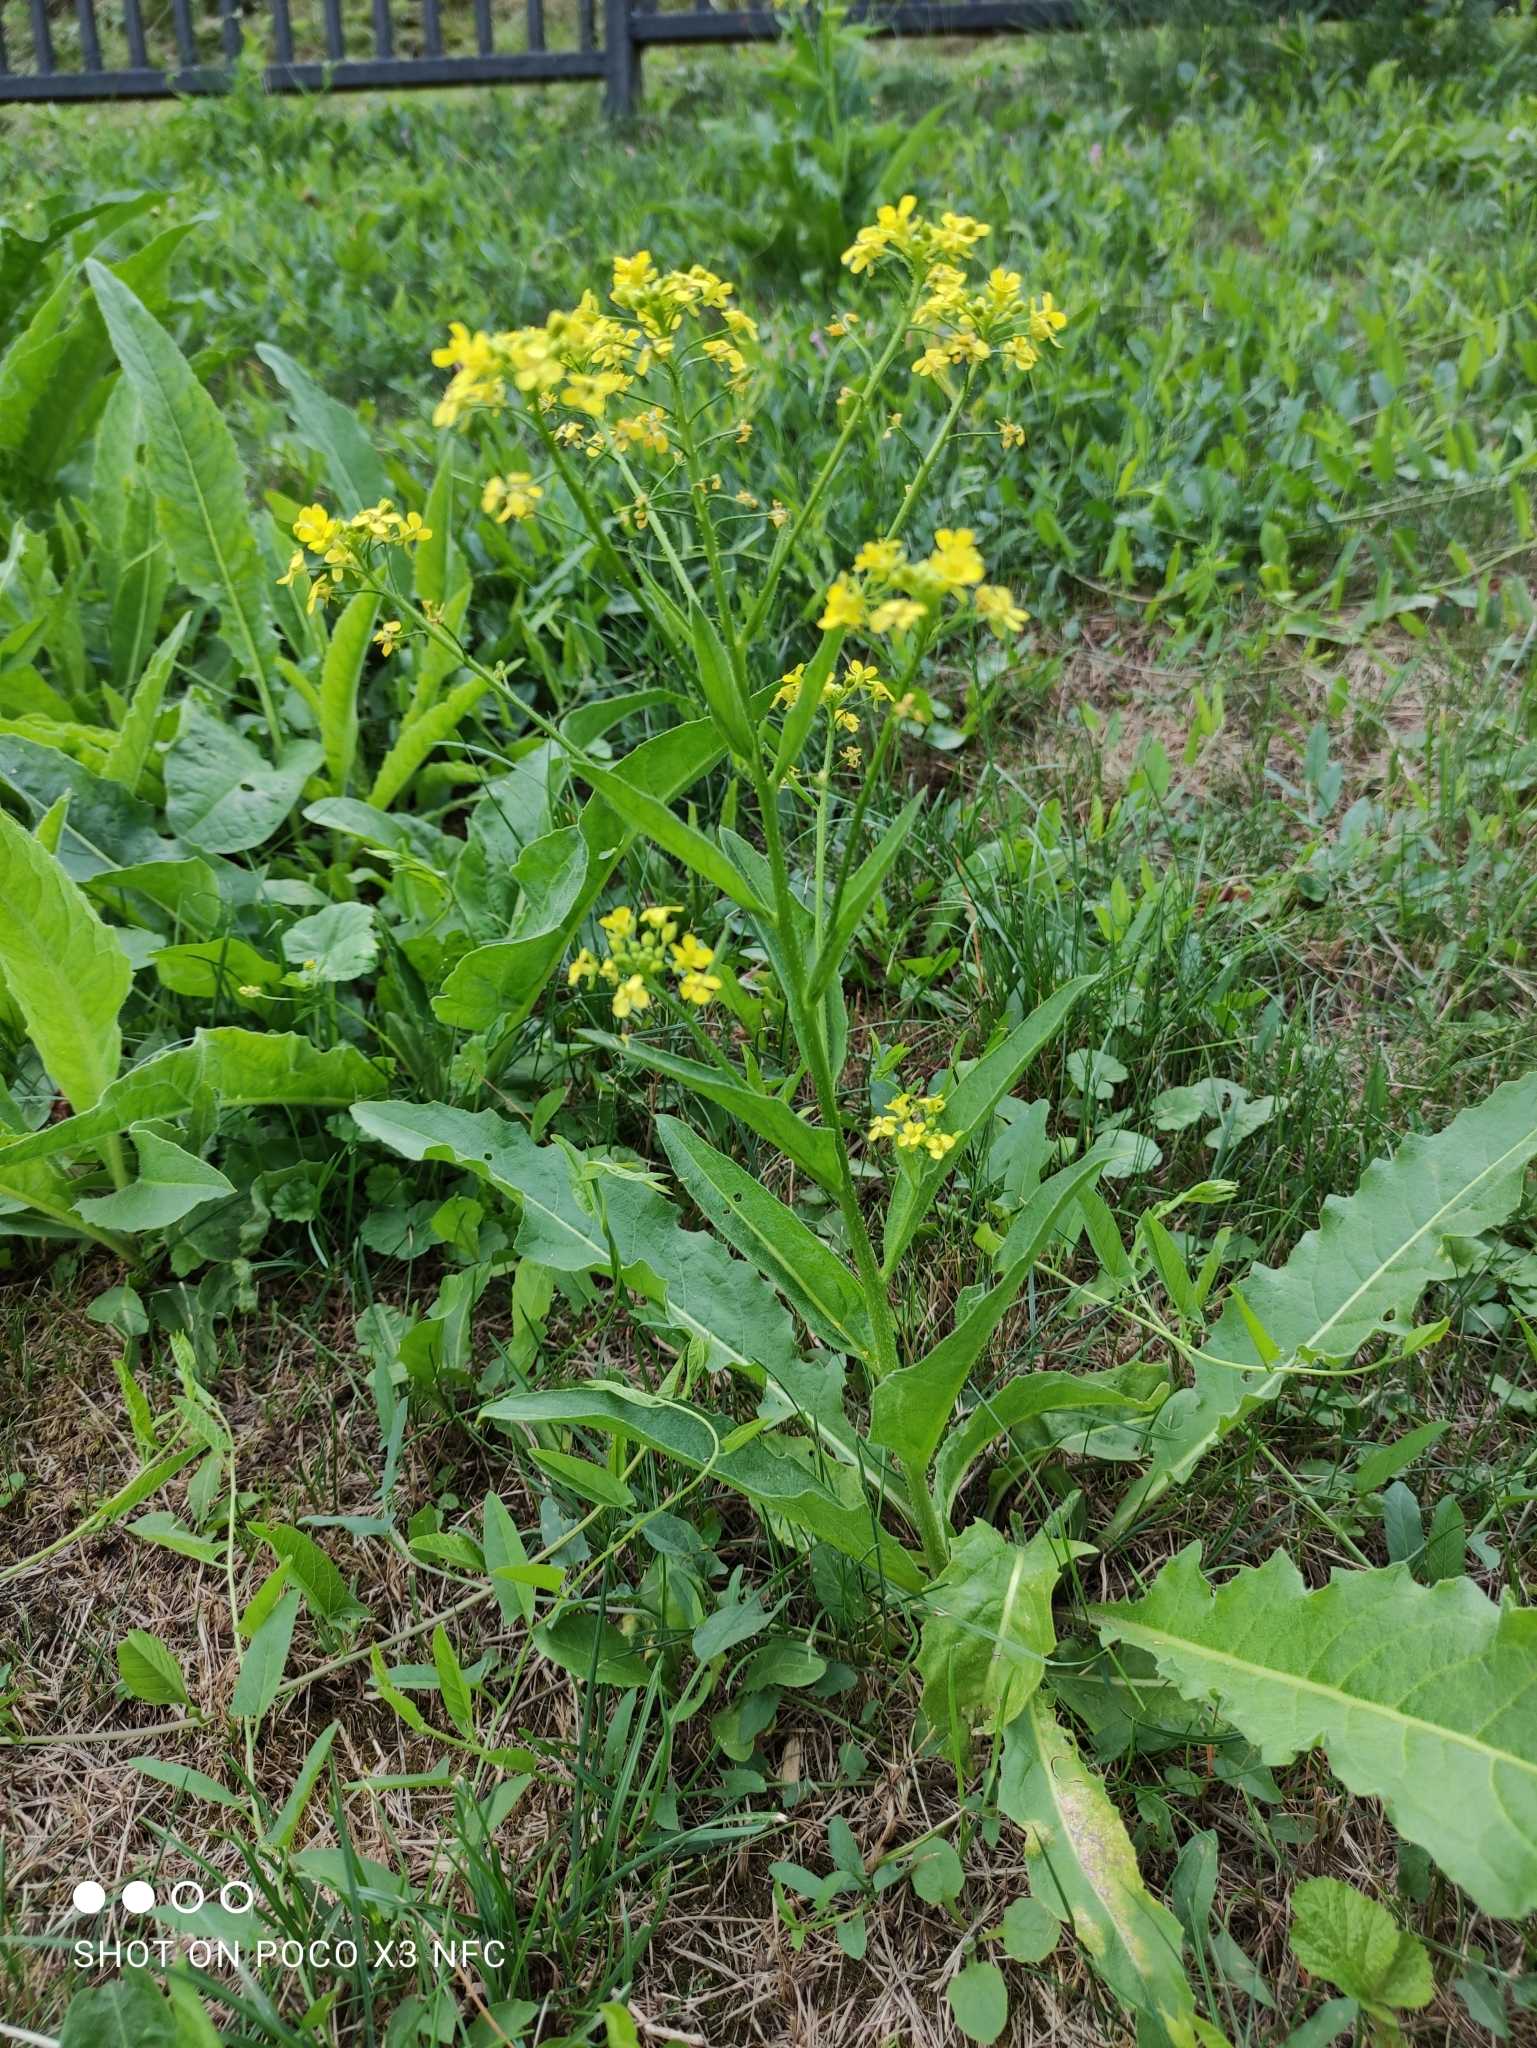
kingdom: Plantae
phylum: Tracheophyta
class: Magnoliopsida
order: Brassicales
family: Brassicaceae
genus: Bunias
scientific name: Bunias orientalis
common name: Warty-cabbage
